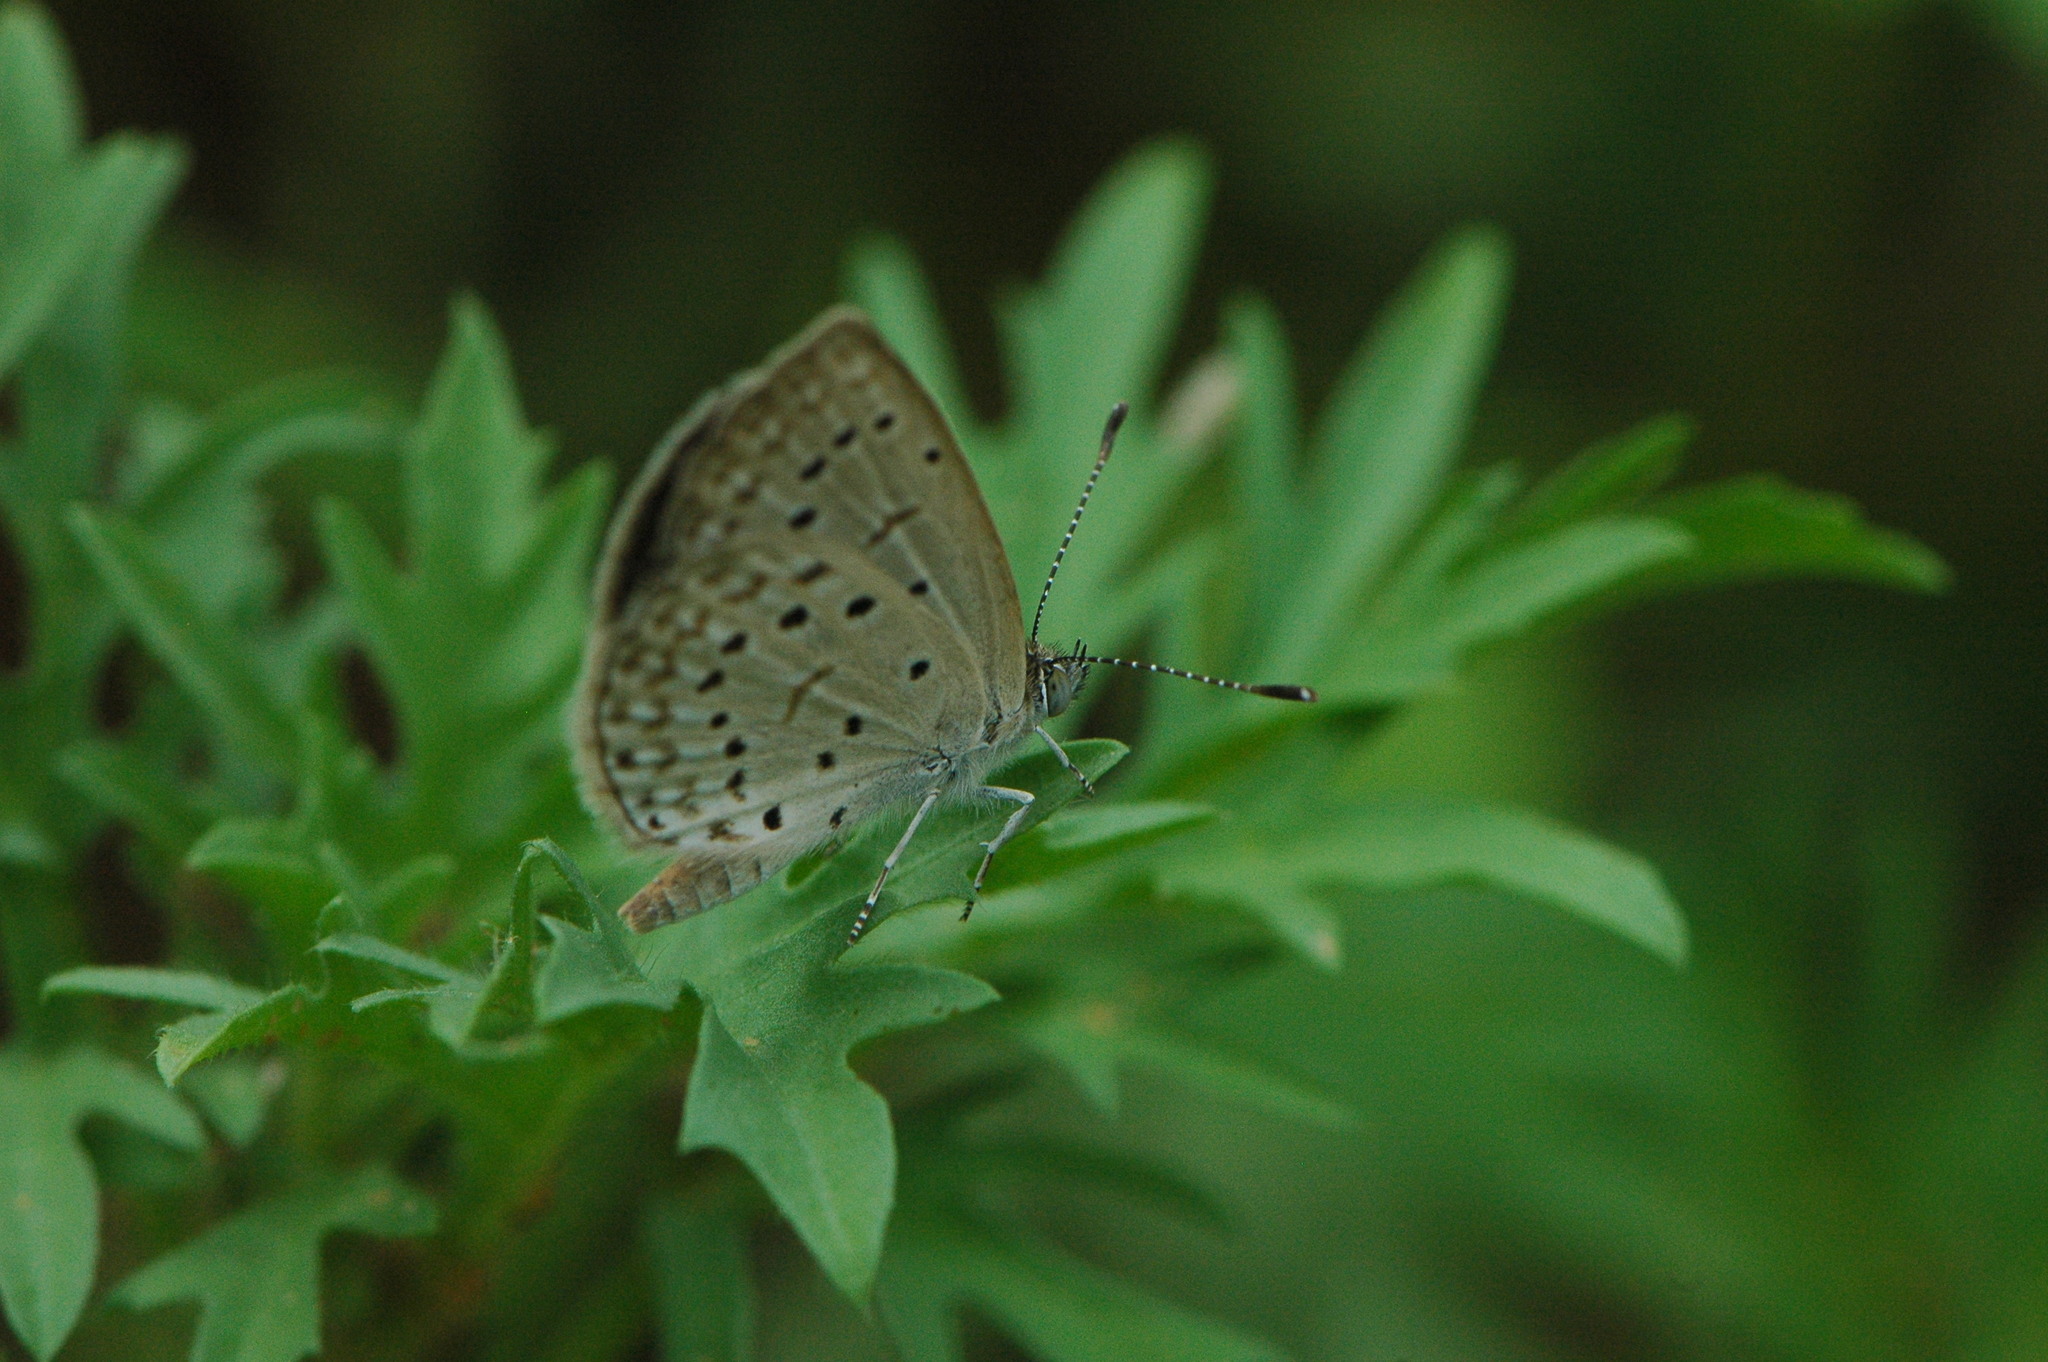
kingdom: Animalia
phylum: Arthropoda
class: Insecta
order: Lepidoptera
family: Lycaenidae
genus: Zizeeria
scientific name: Zizeeria knysna
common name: African grass blue
